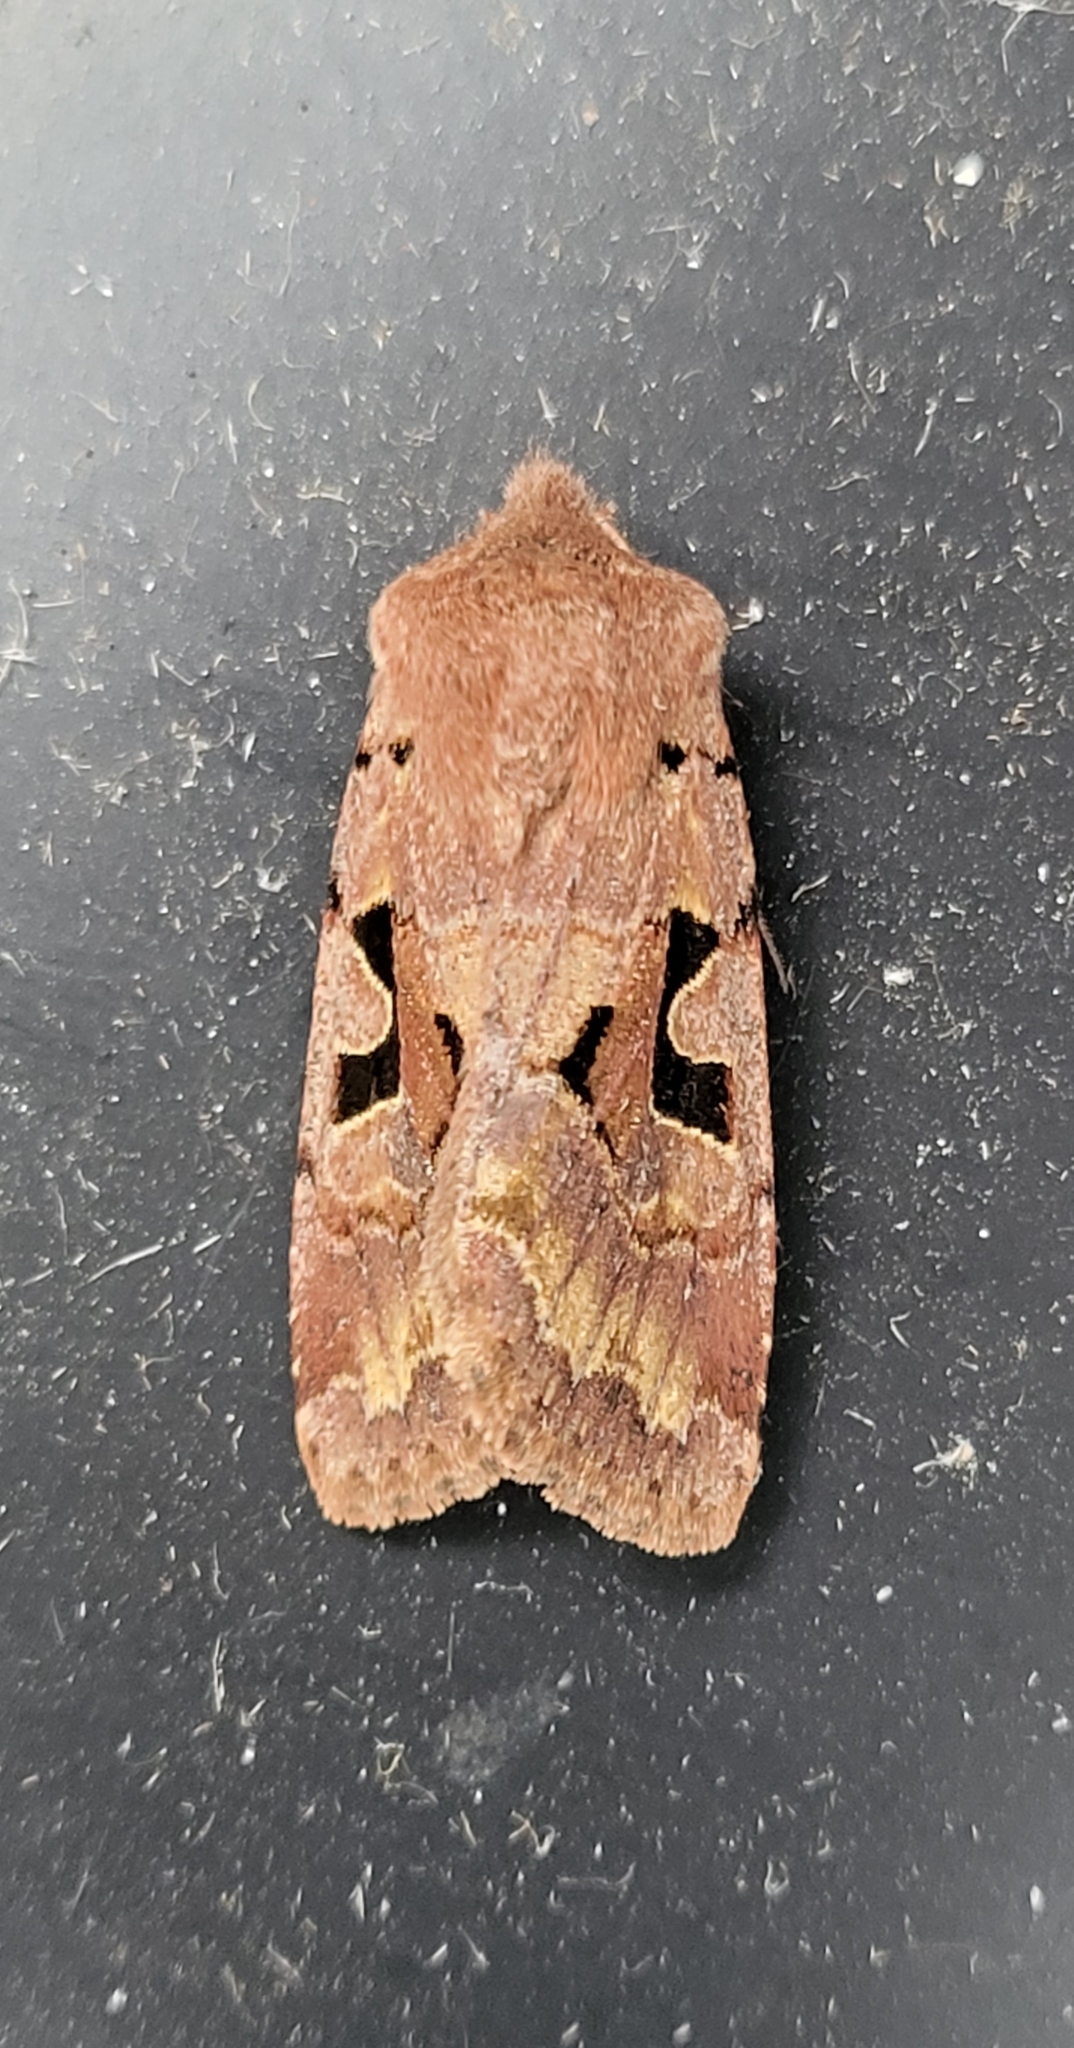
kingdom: Animalia
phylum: Arthropoda
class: Insecta
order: Lepidoptera
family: Noctuidae
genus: Orthosia
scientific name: Orthosia gothica
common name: Hebrew character
